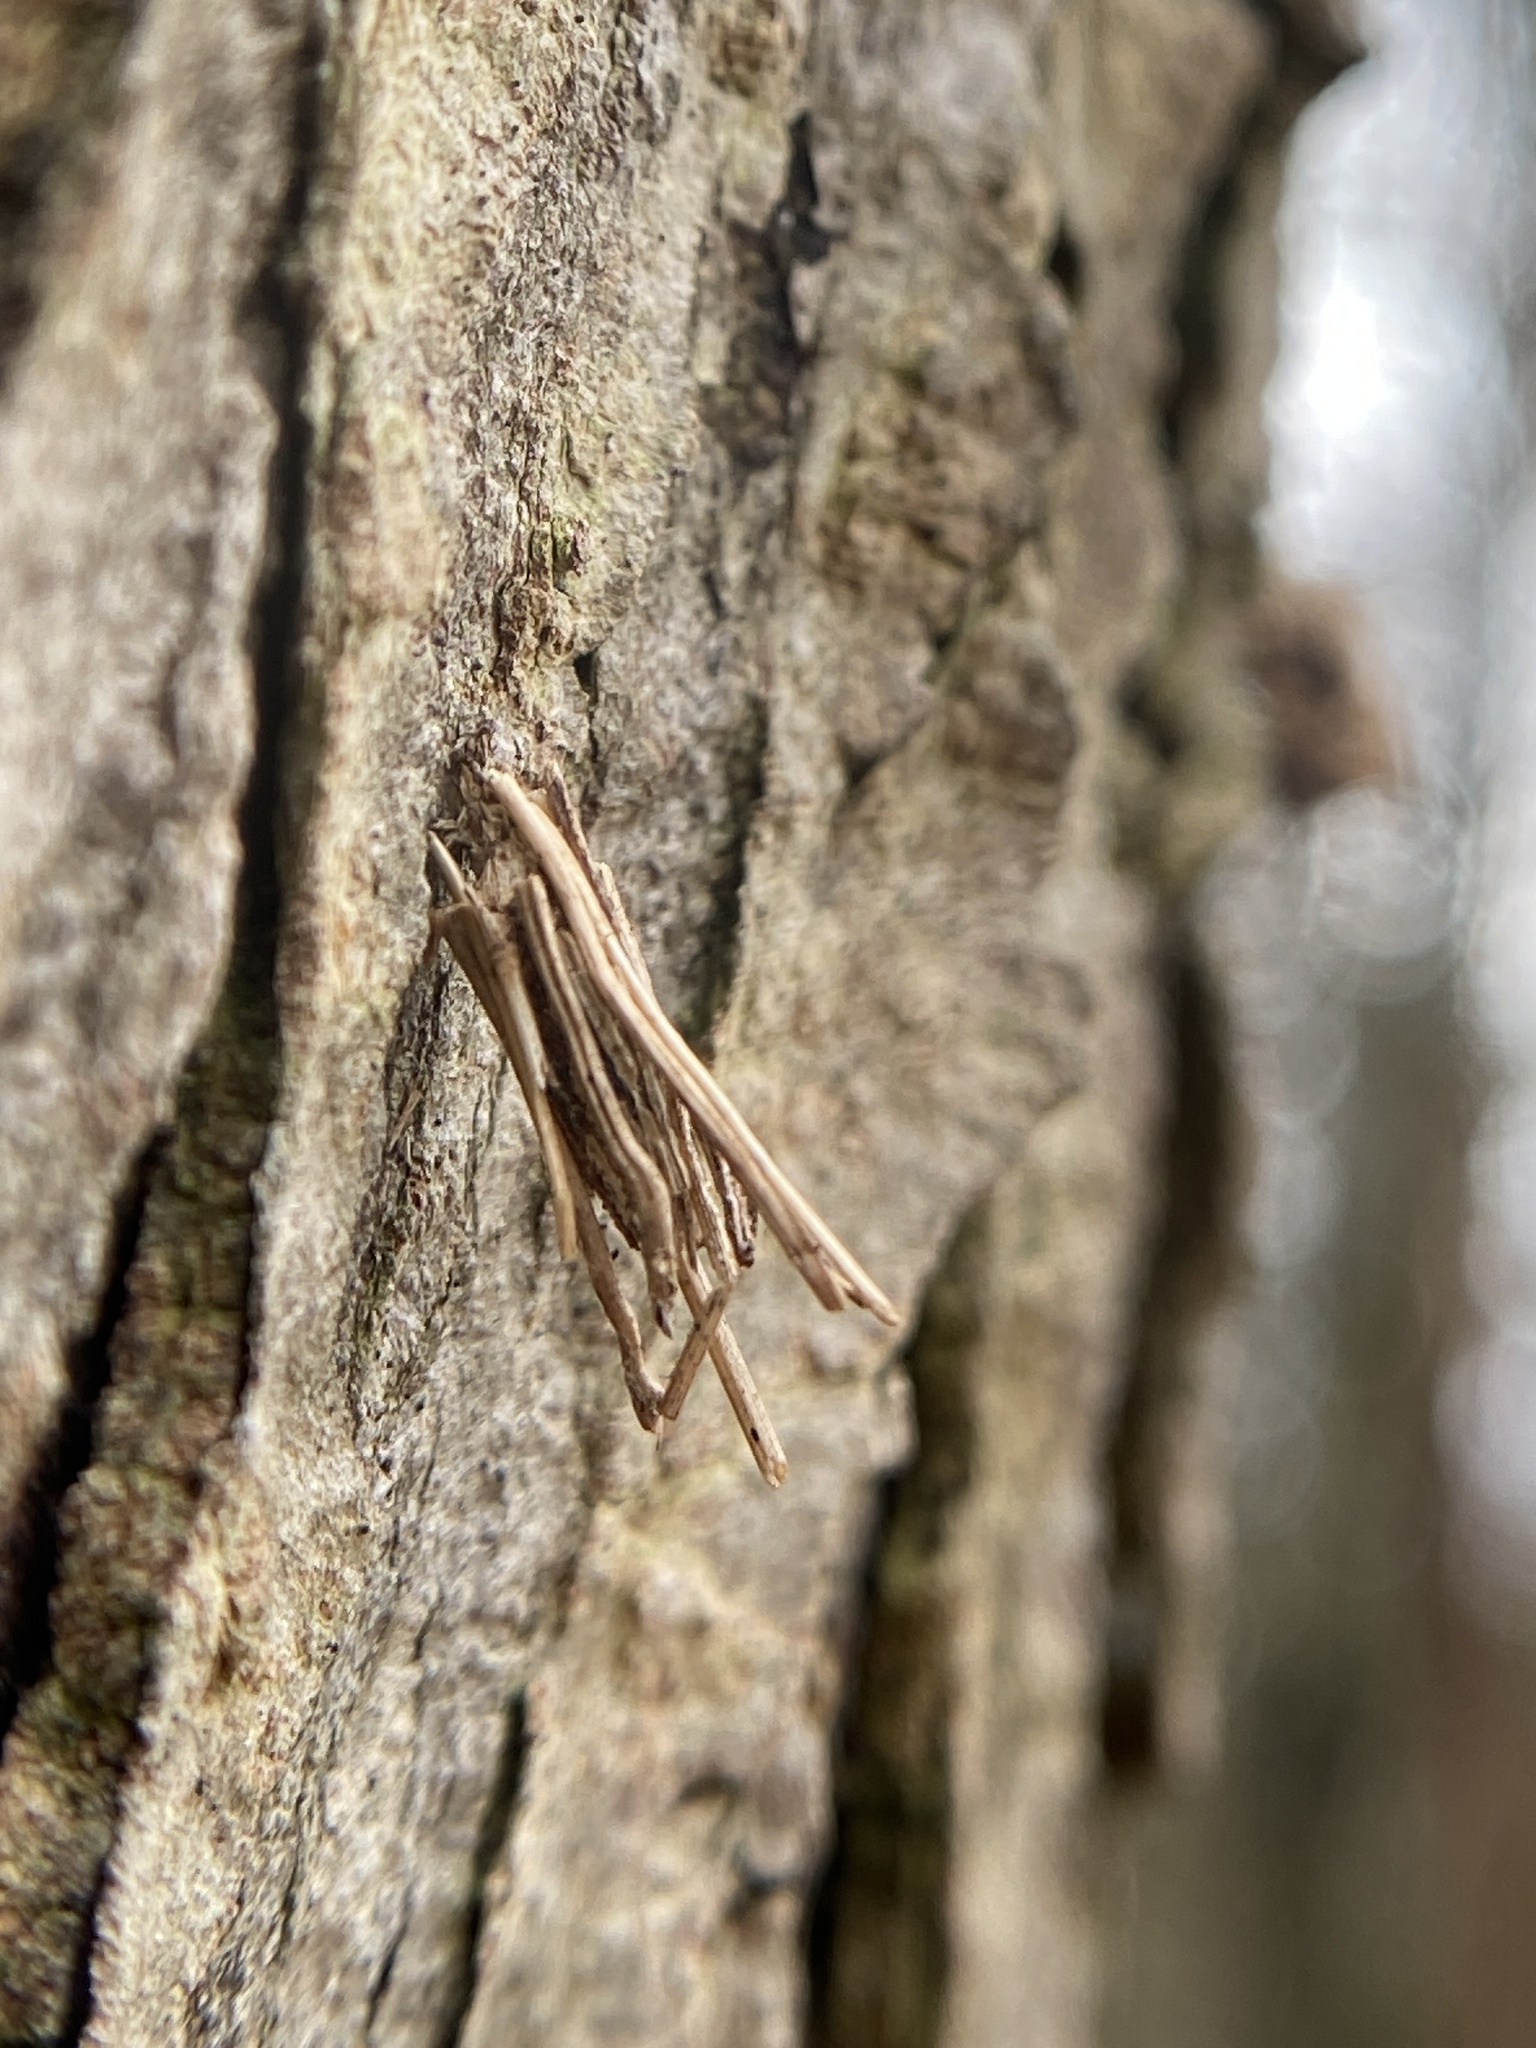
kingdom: Animalia
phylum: Arthropoda
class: Insecta
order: Lepidoptera
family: Psychidae
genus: Psyche
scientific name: Psyche casta
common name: Common sweep
